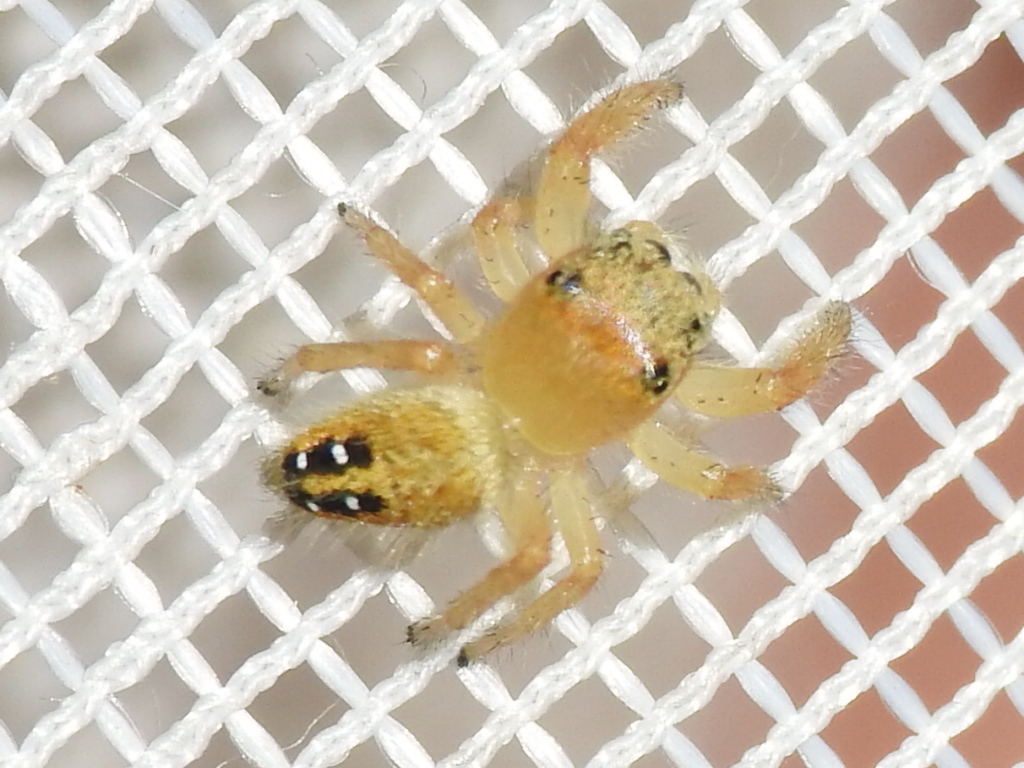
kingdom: Animalia
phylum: Arthropoda
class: Arachnida
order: Araneae
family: Salticidae
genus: Phidippus
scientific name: Phidippus cardinalis
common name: Cardinal jumper
